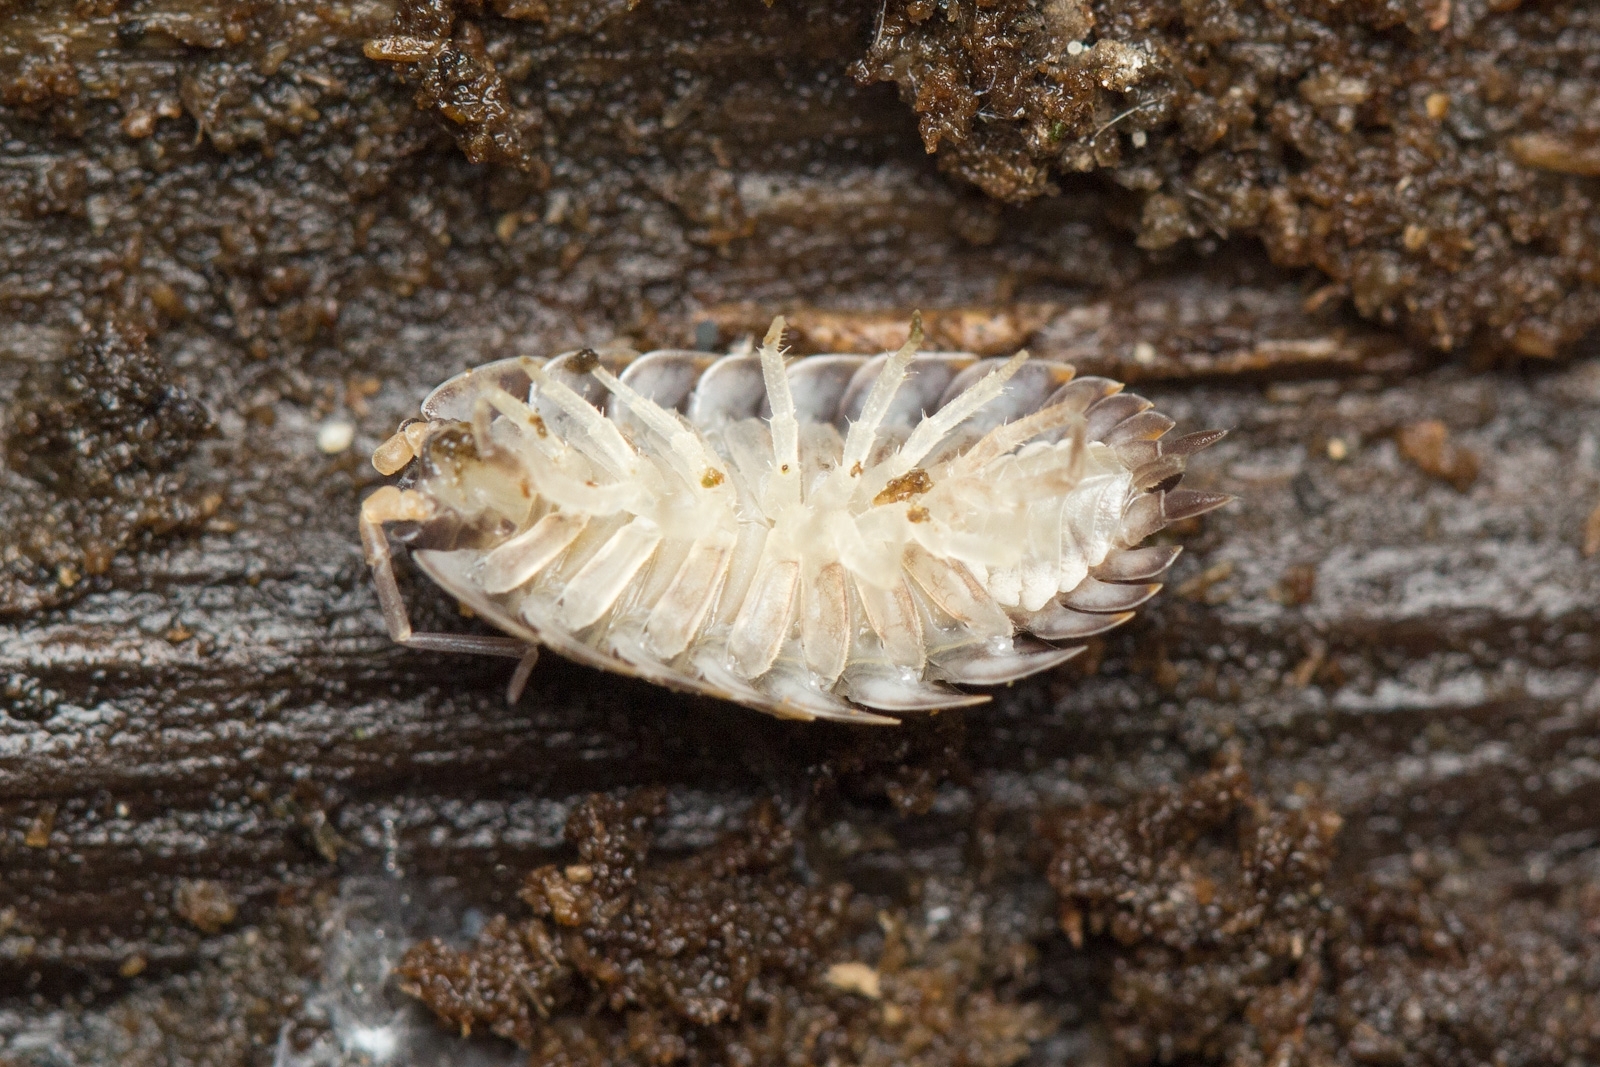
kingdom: Animalia
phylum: Arthropoda
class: Malacostraca
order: Isopoda
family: Trachelipodidae
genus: Trachelipus
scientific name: Trachelipus rathkii
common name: Isopod
